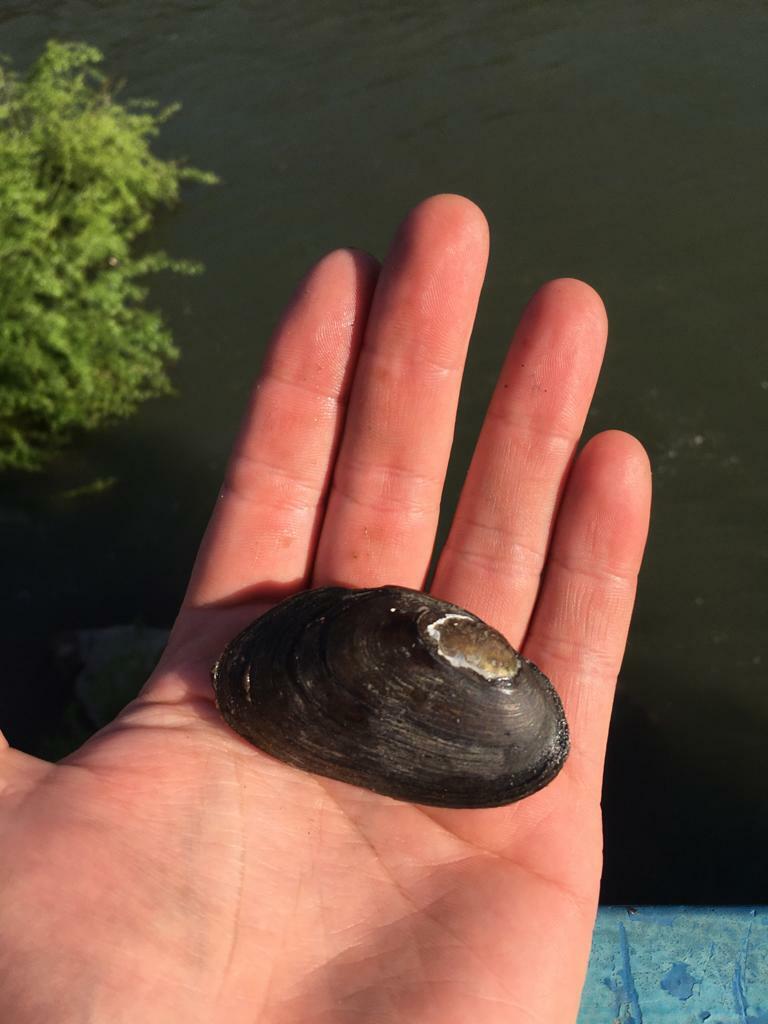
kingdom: Animalia
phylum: Mollusca
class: Bivalvia
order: Unionida
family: Hyriidae
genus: Diplodon
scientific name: Diplodon chilensis
